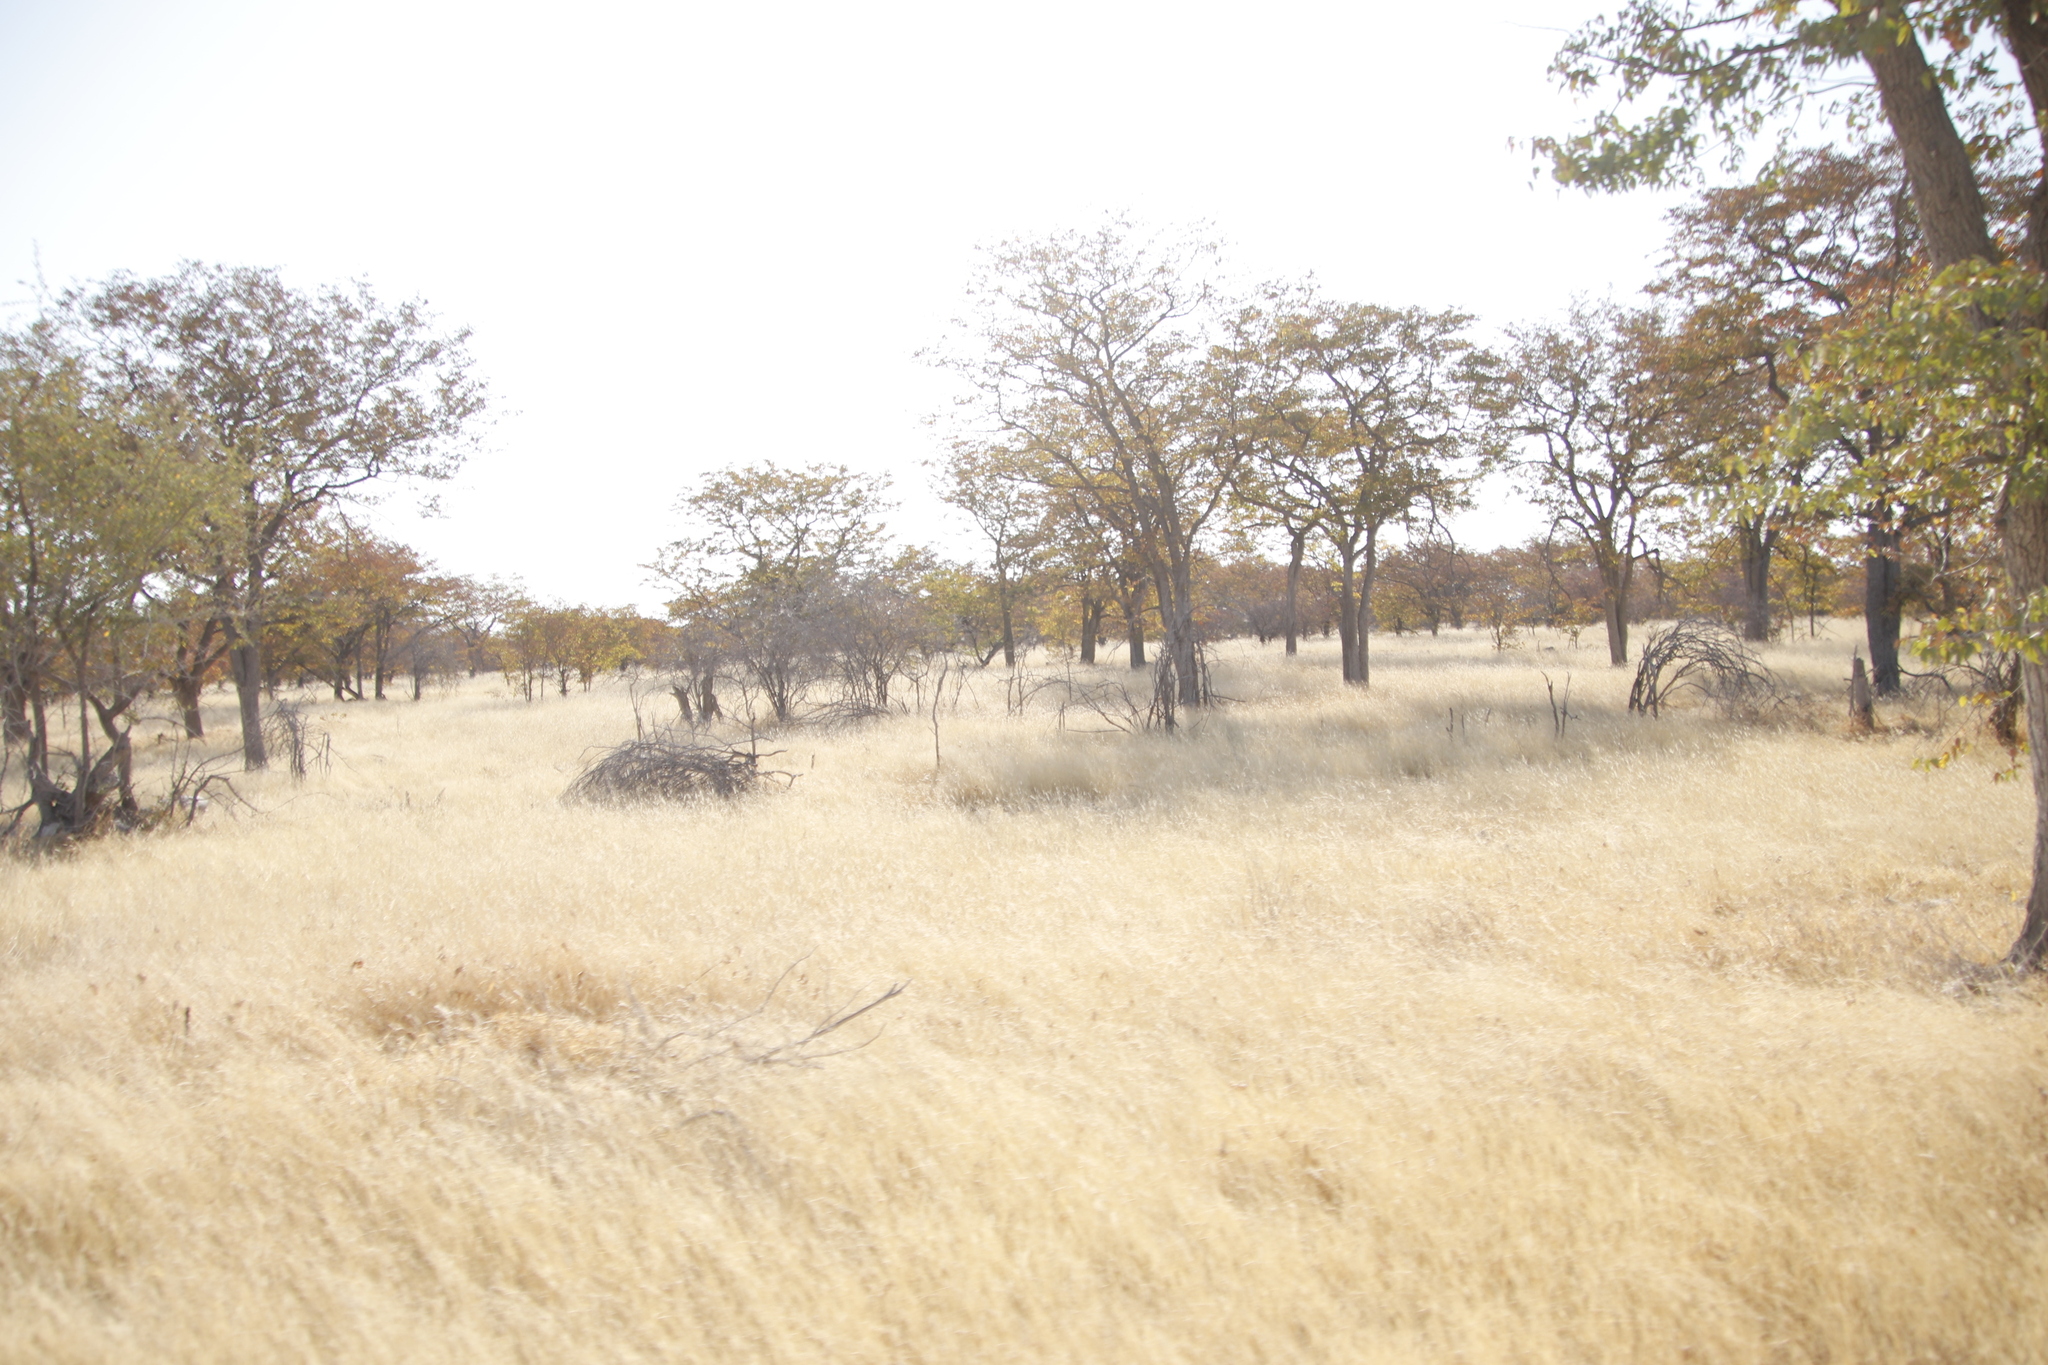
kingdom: Plantae
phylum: Tracheophyta
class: Magnoliopsida
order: Fabales
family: Fabaceae
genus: Colophospermum
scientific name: Colophospermum mopane
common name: Mopane
